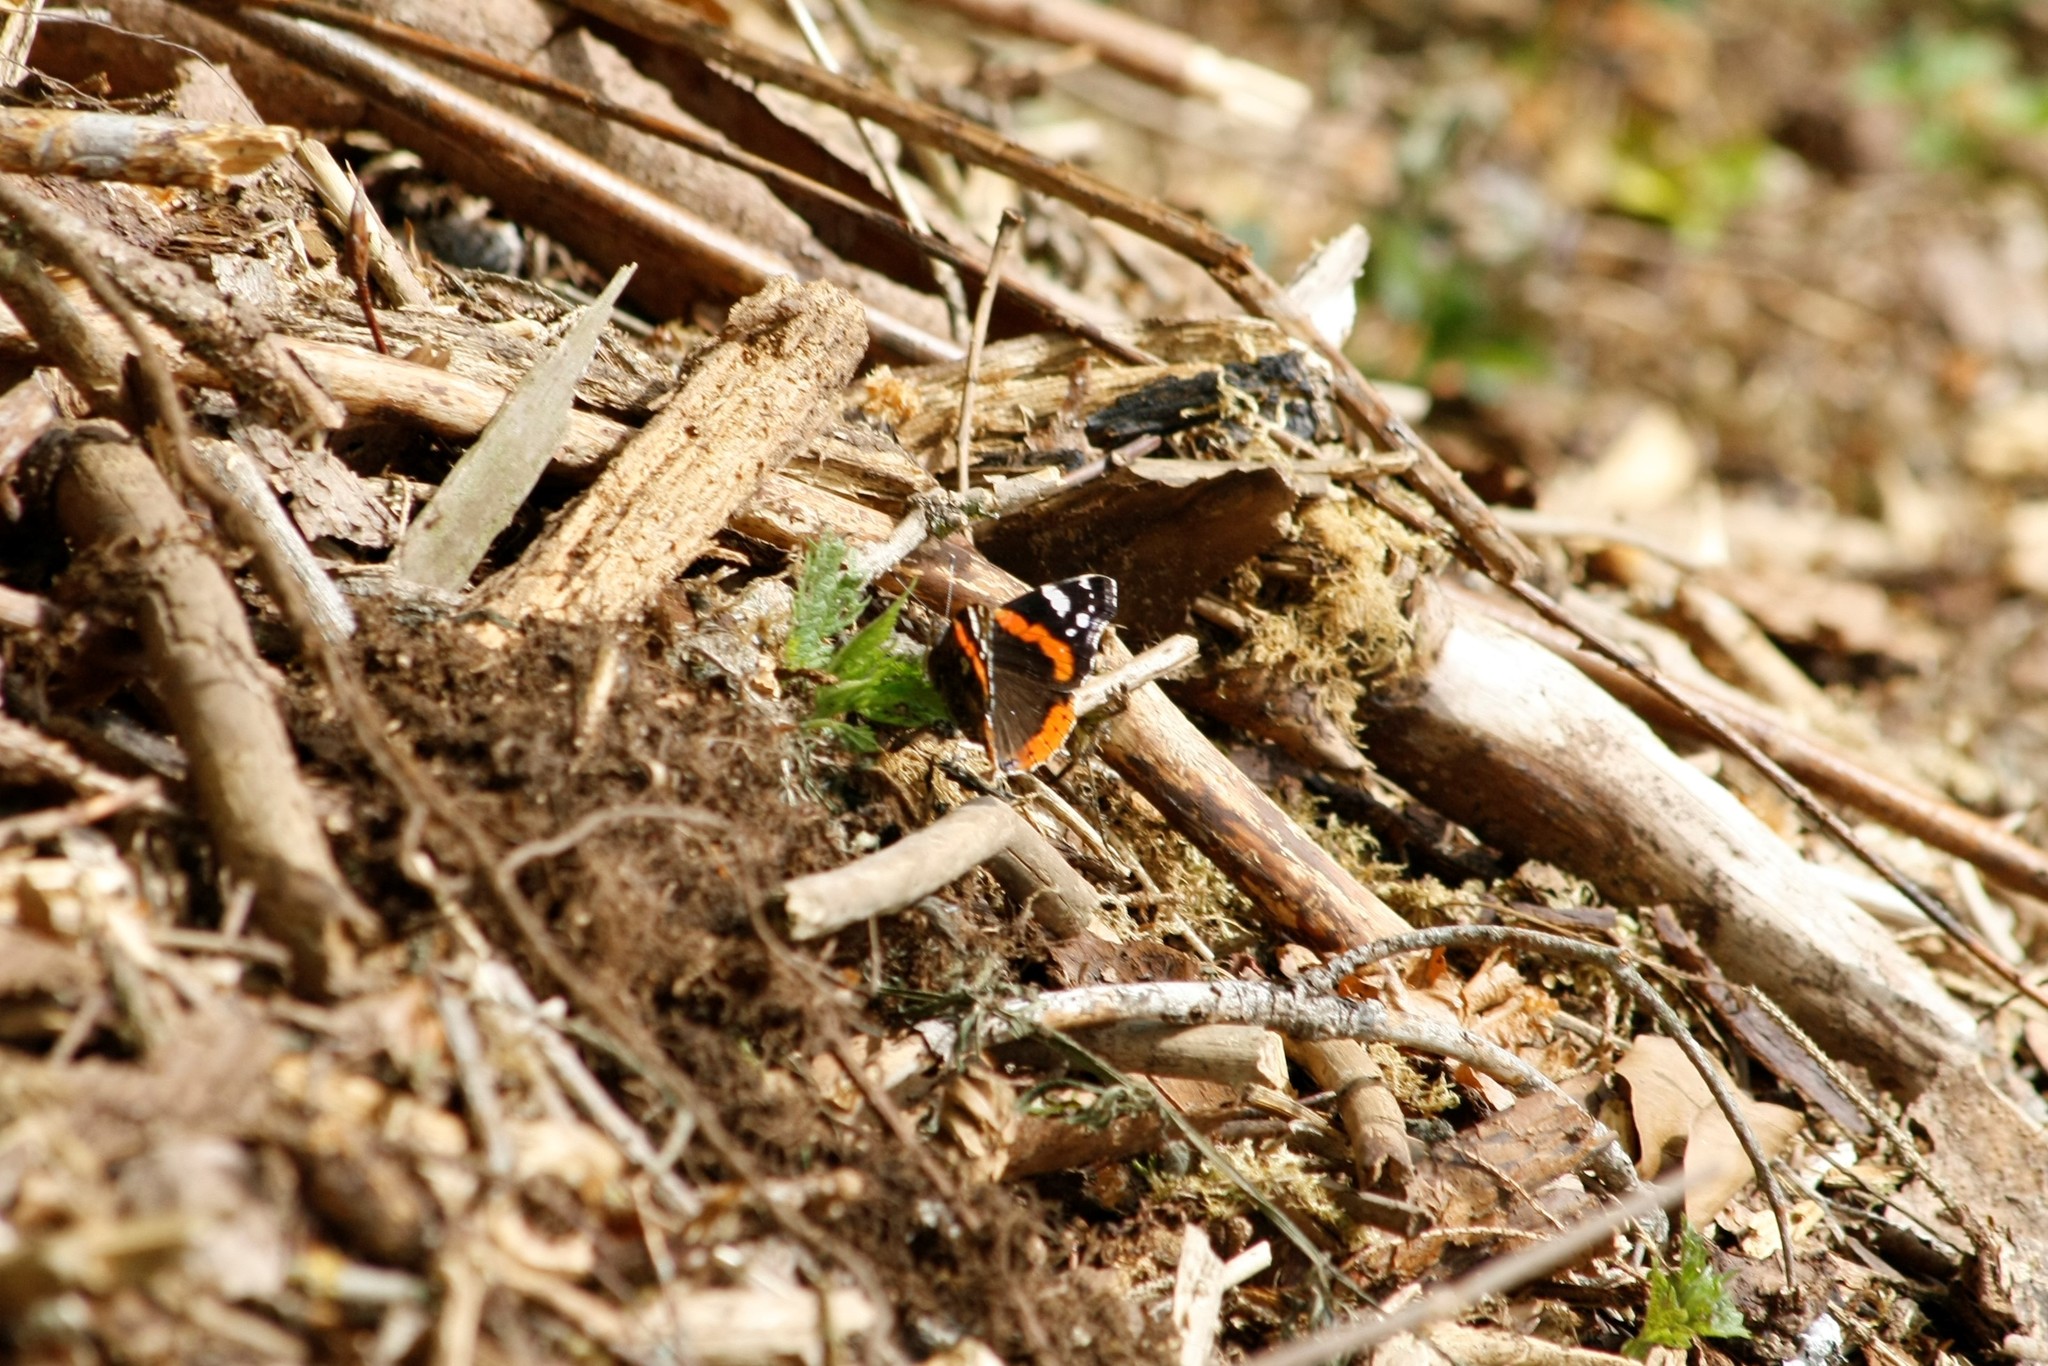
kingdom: Animalia
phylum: Arthropoda
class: Insecta
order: Lepidoptera
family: Nymphalidae
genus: Vanessa
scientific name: Vanessa atalanta
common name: Red admiral
